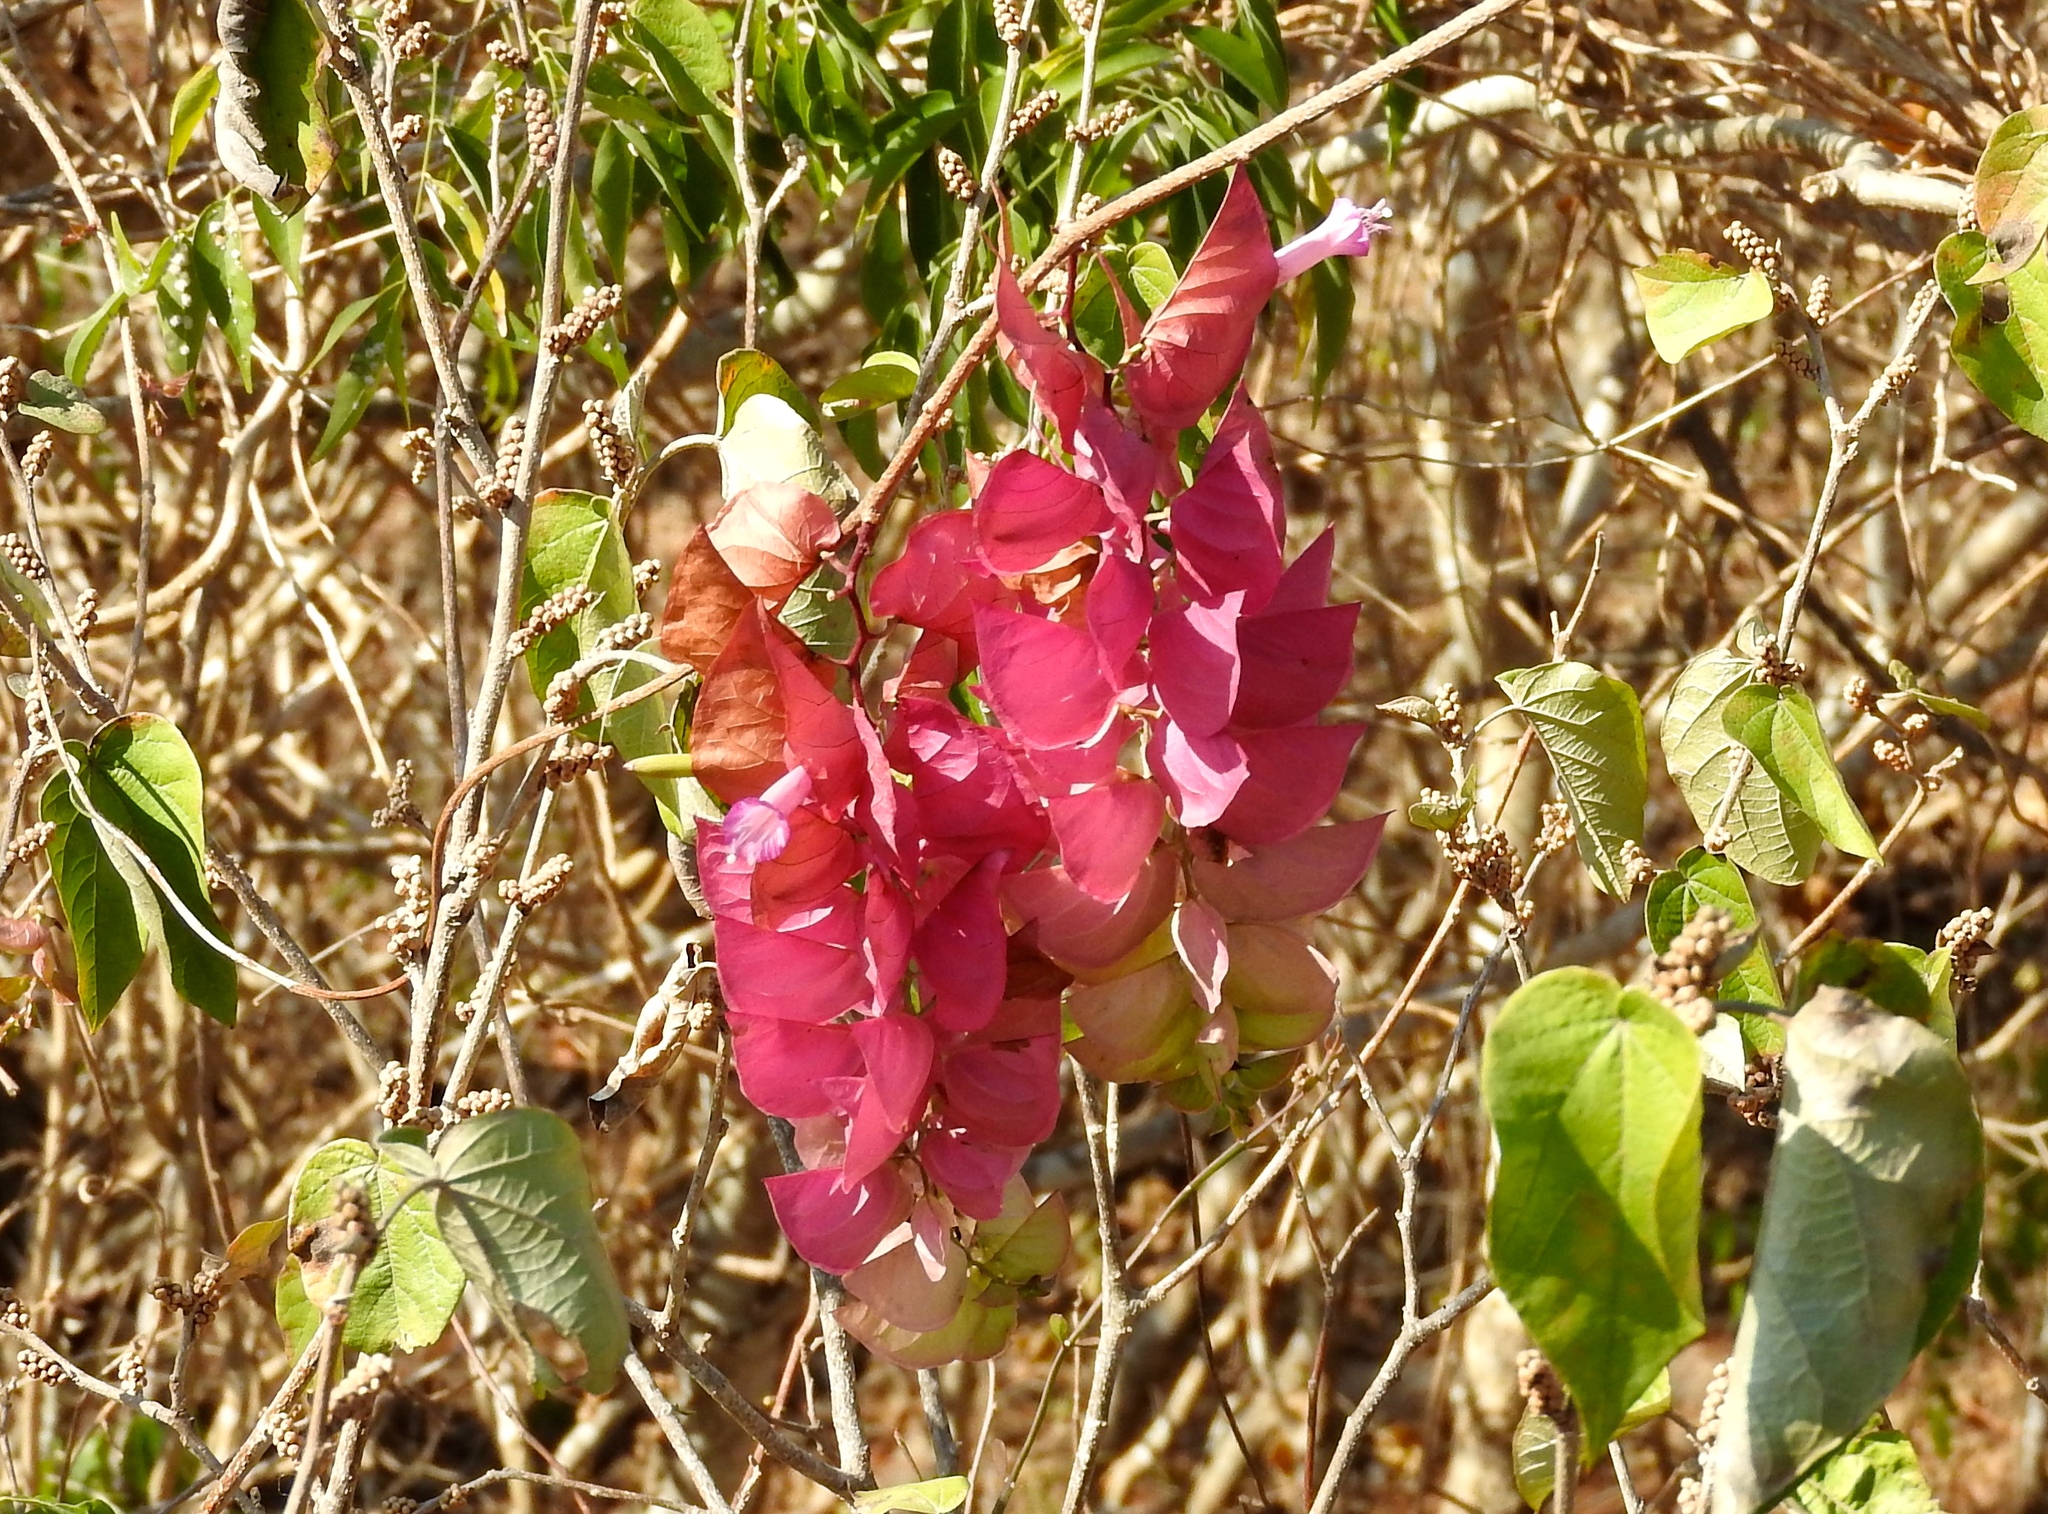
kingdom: Plantae
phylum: Tracheophyta
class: Magnoliopsida
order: Solanales
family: Convolvulaceae
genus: Ipomoea
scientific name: Ipomoea bracteata
